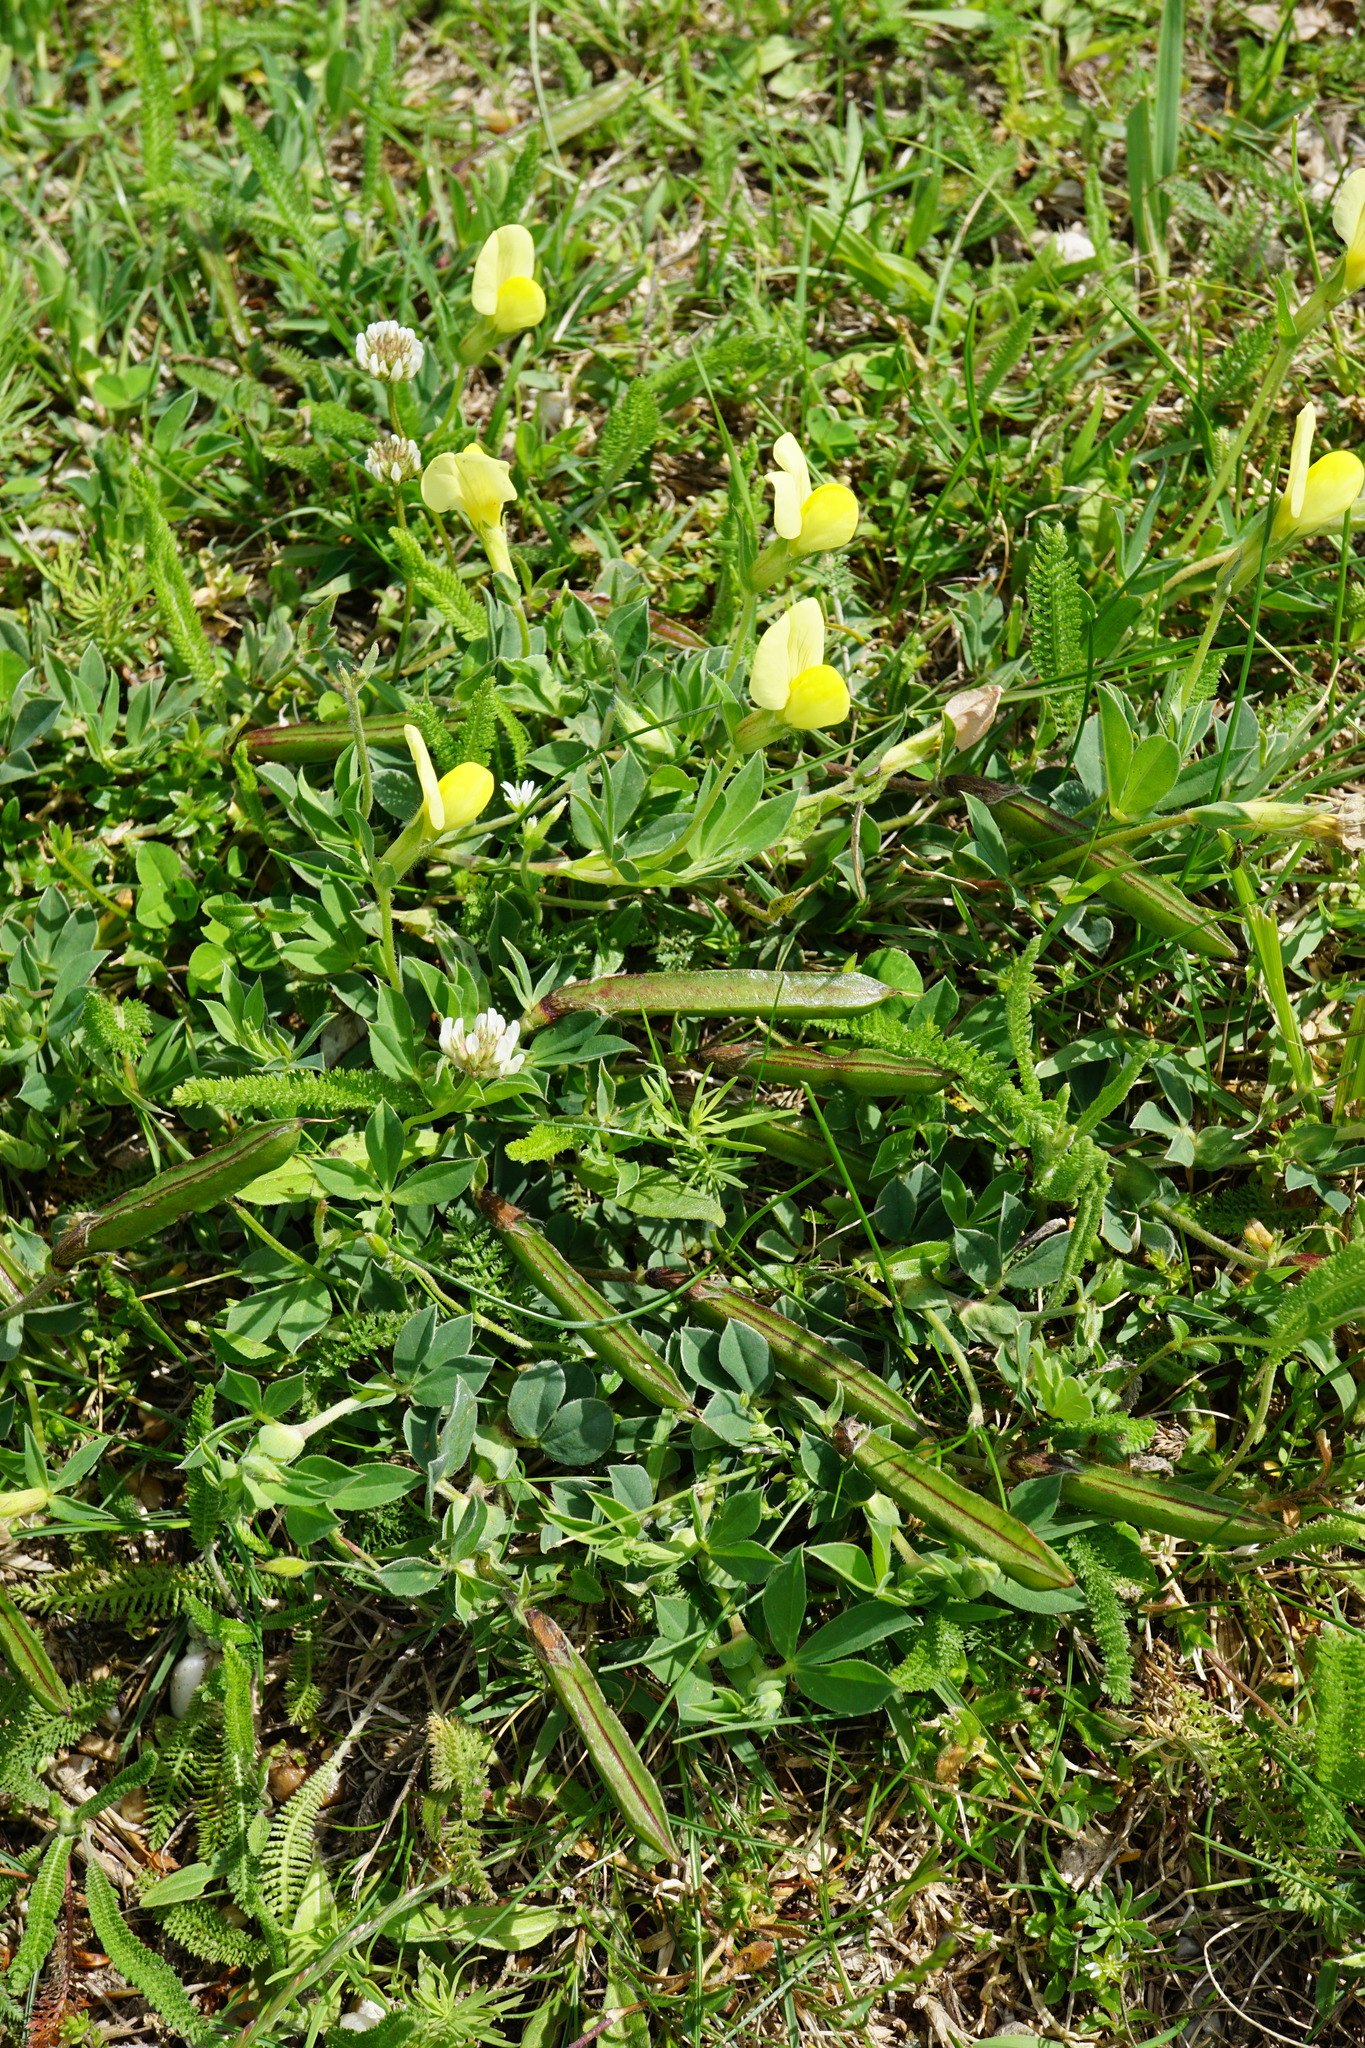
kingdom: Plantae
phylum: Tracheophyta
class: Magnoliopsida
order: Fabales
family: Fabaceae
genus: Lotus
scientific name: Lotus maritimus
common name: Dragon's-teeth
